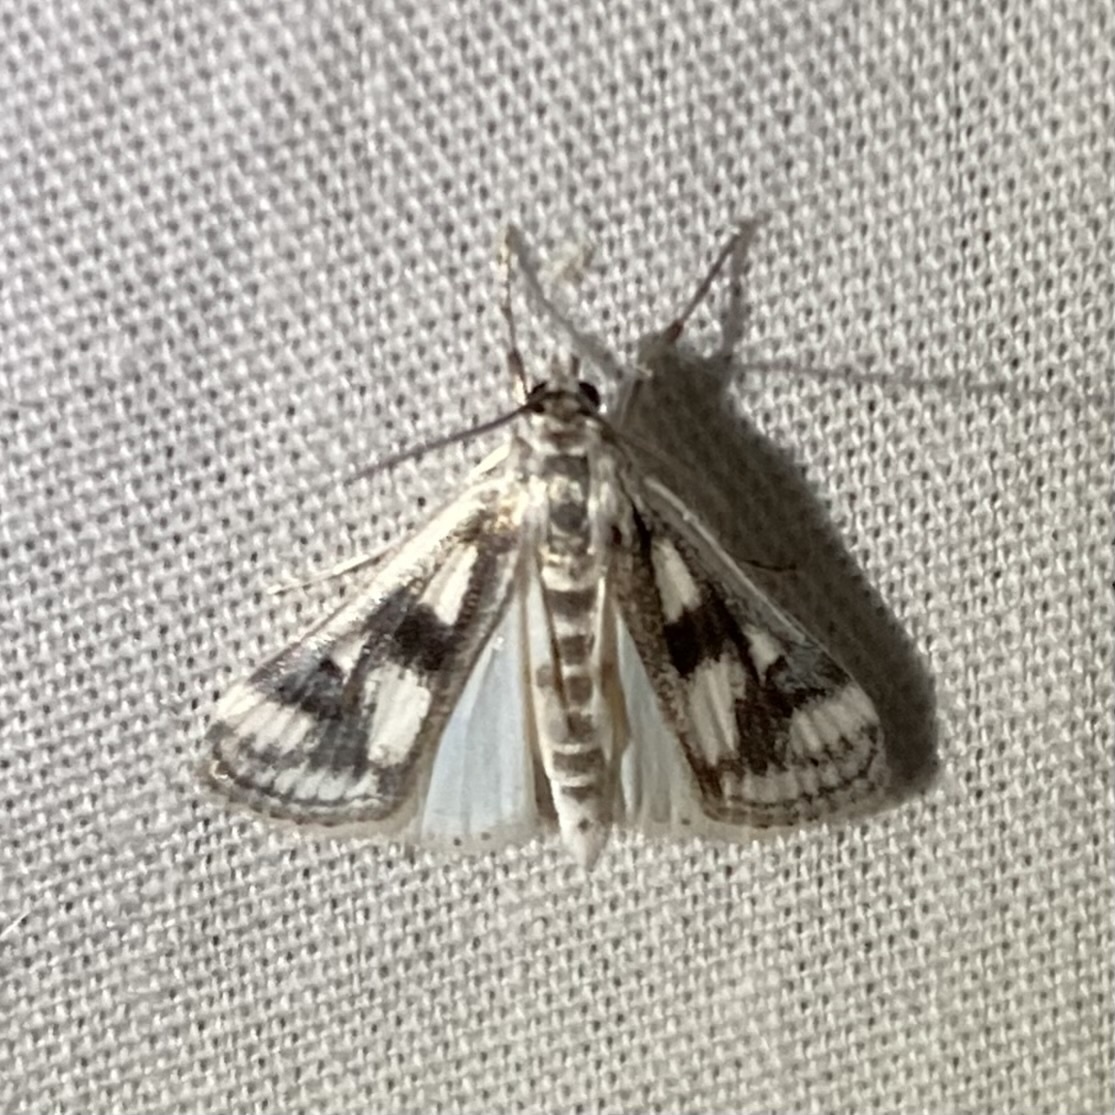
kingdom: Animalia
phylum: Arthropoda
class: Insecta
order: Lepidoptera
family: Crambidae
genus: Parapoynx
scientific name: Parapoynx maculalis
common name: Polymorphic pondweed moth
